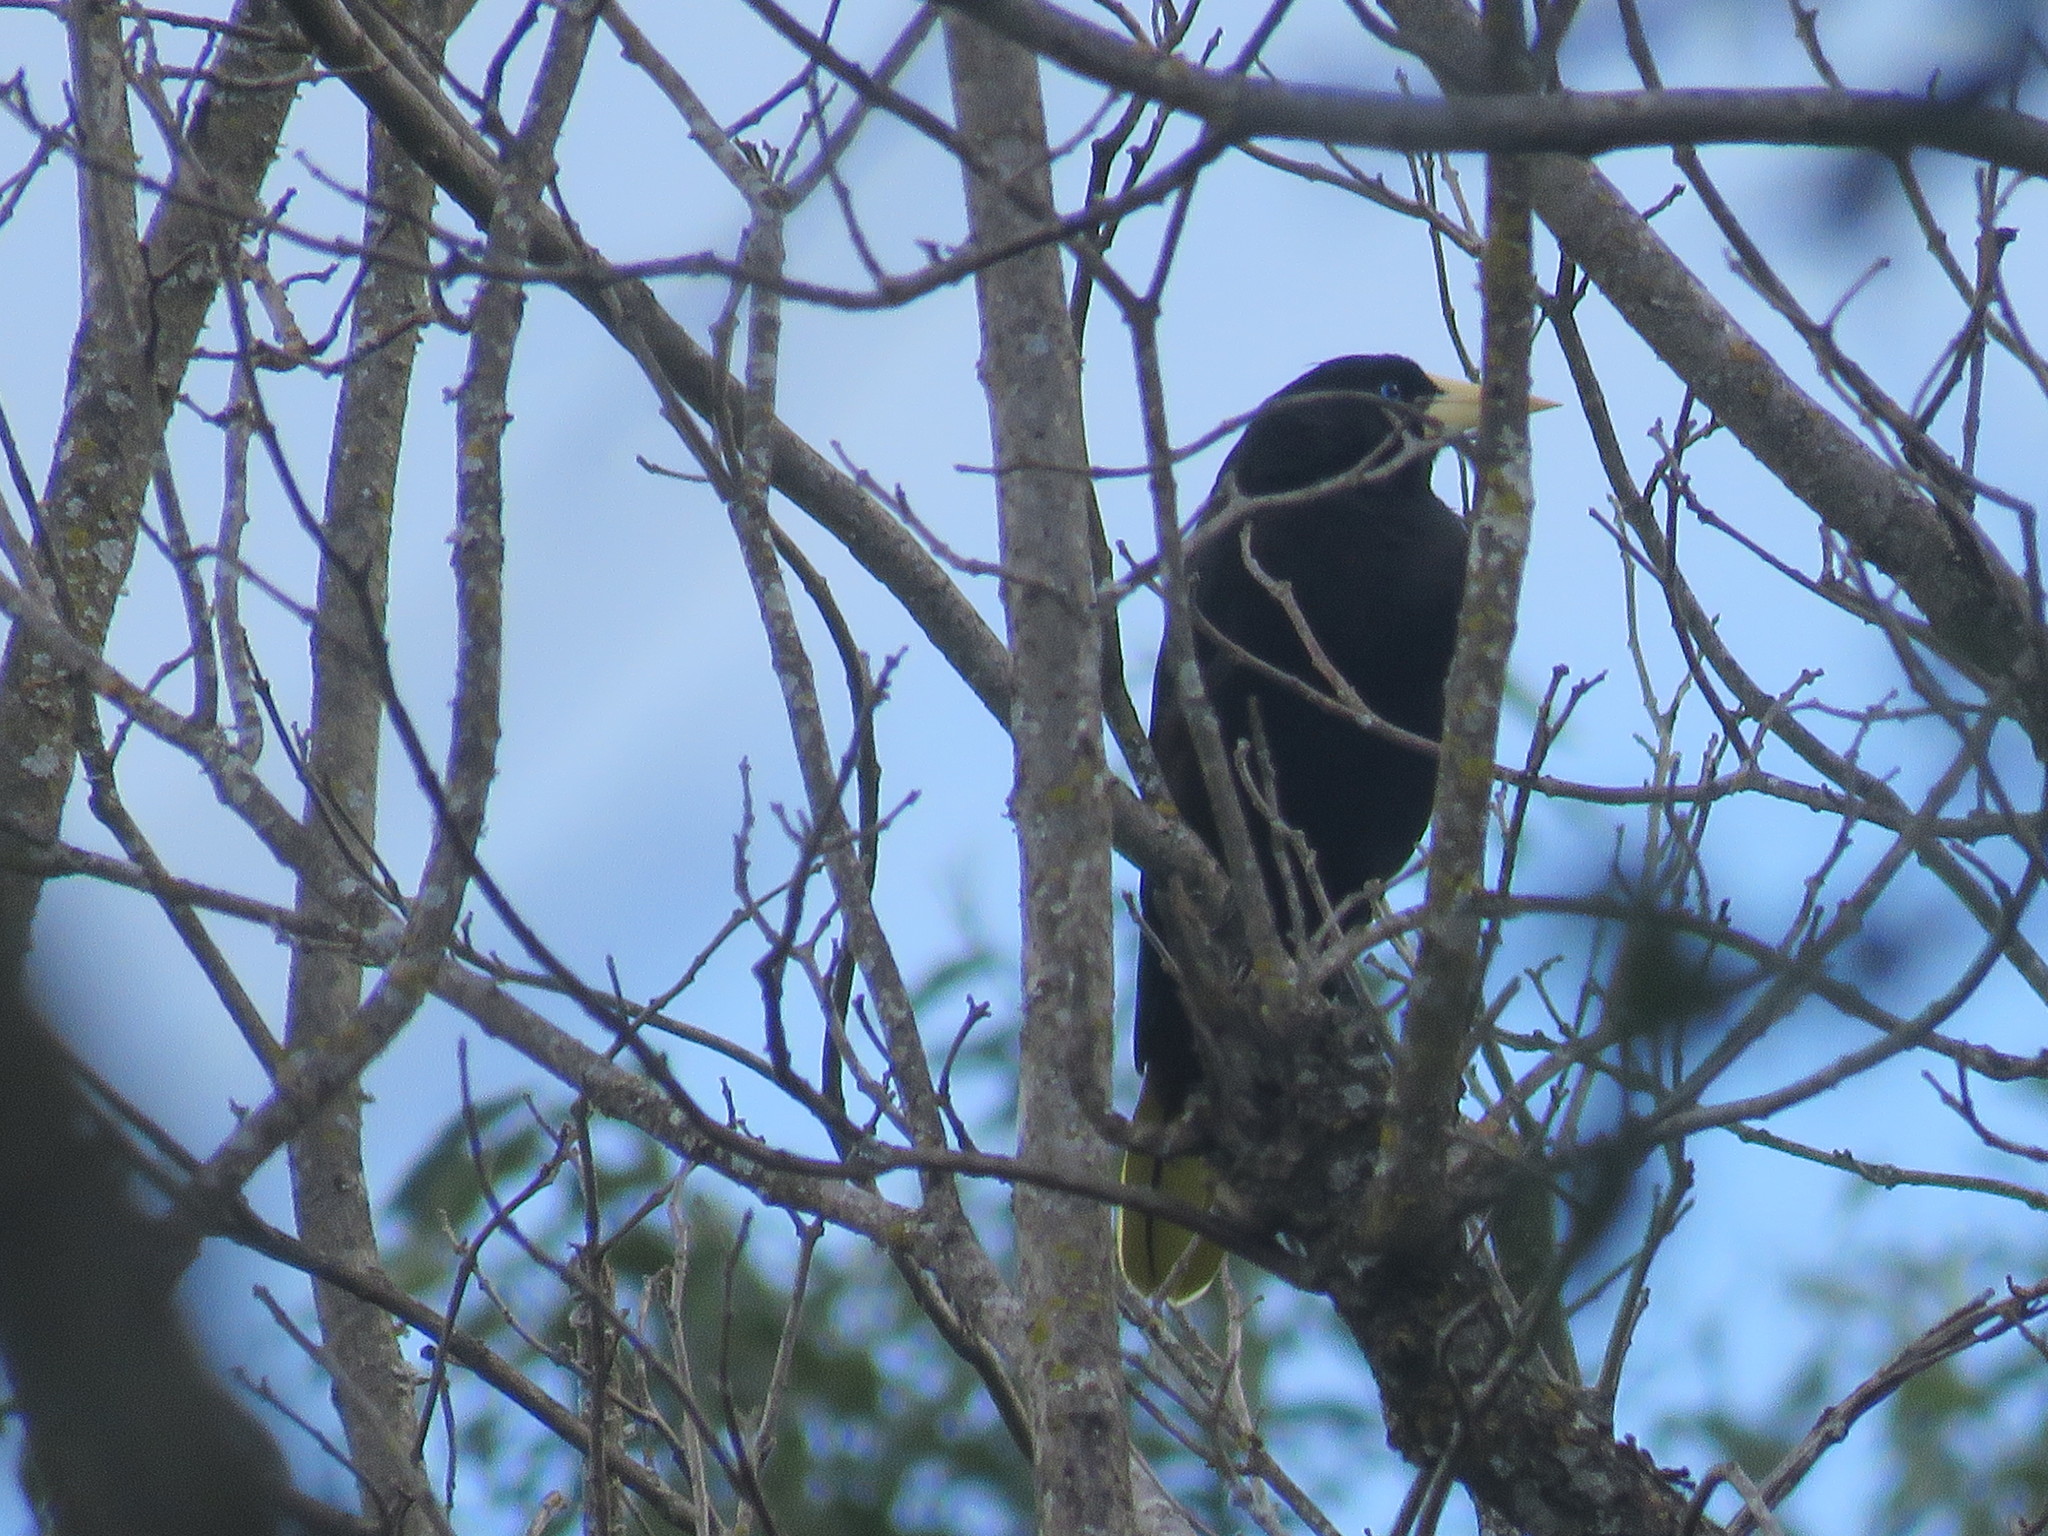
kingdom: Animalia
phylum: Chordata
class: Aves
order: Passeriformes
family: Icteridae
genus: Psarocolius
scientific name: Psarocolius decumanus
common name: Crested oropendola
